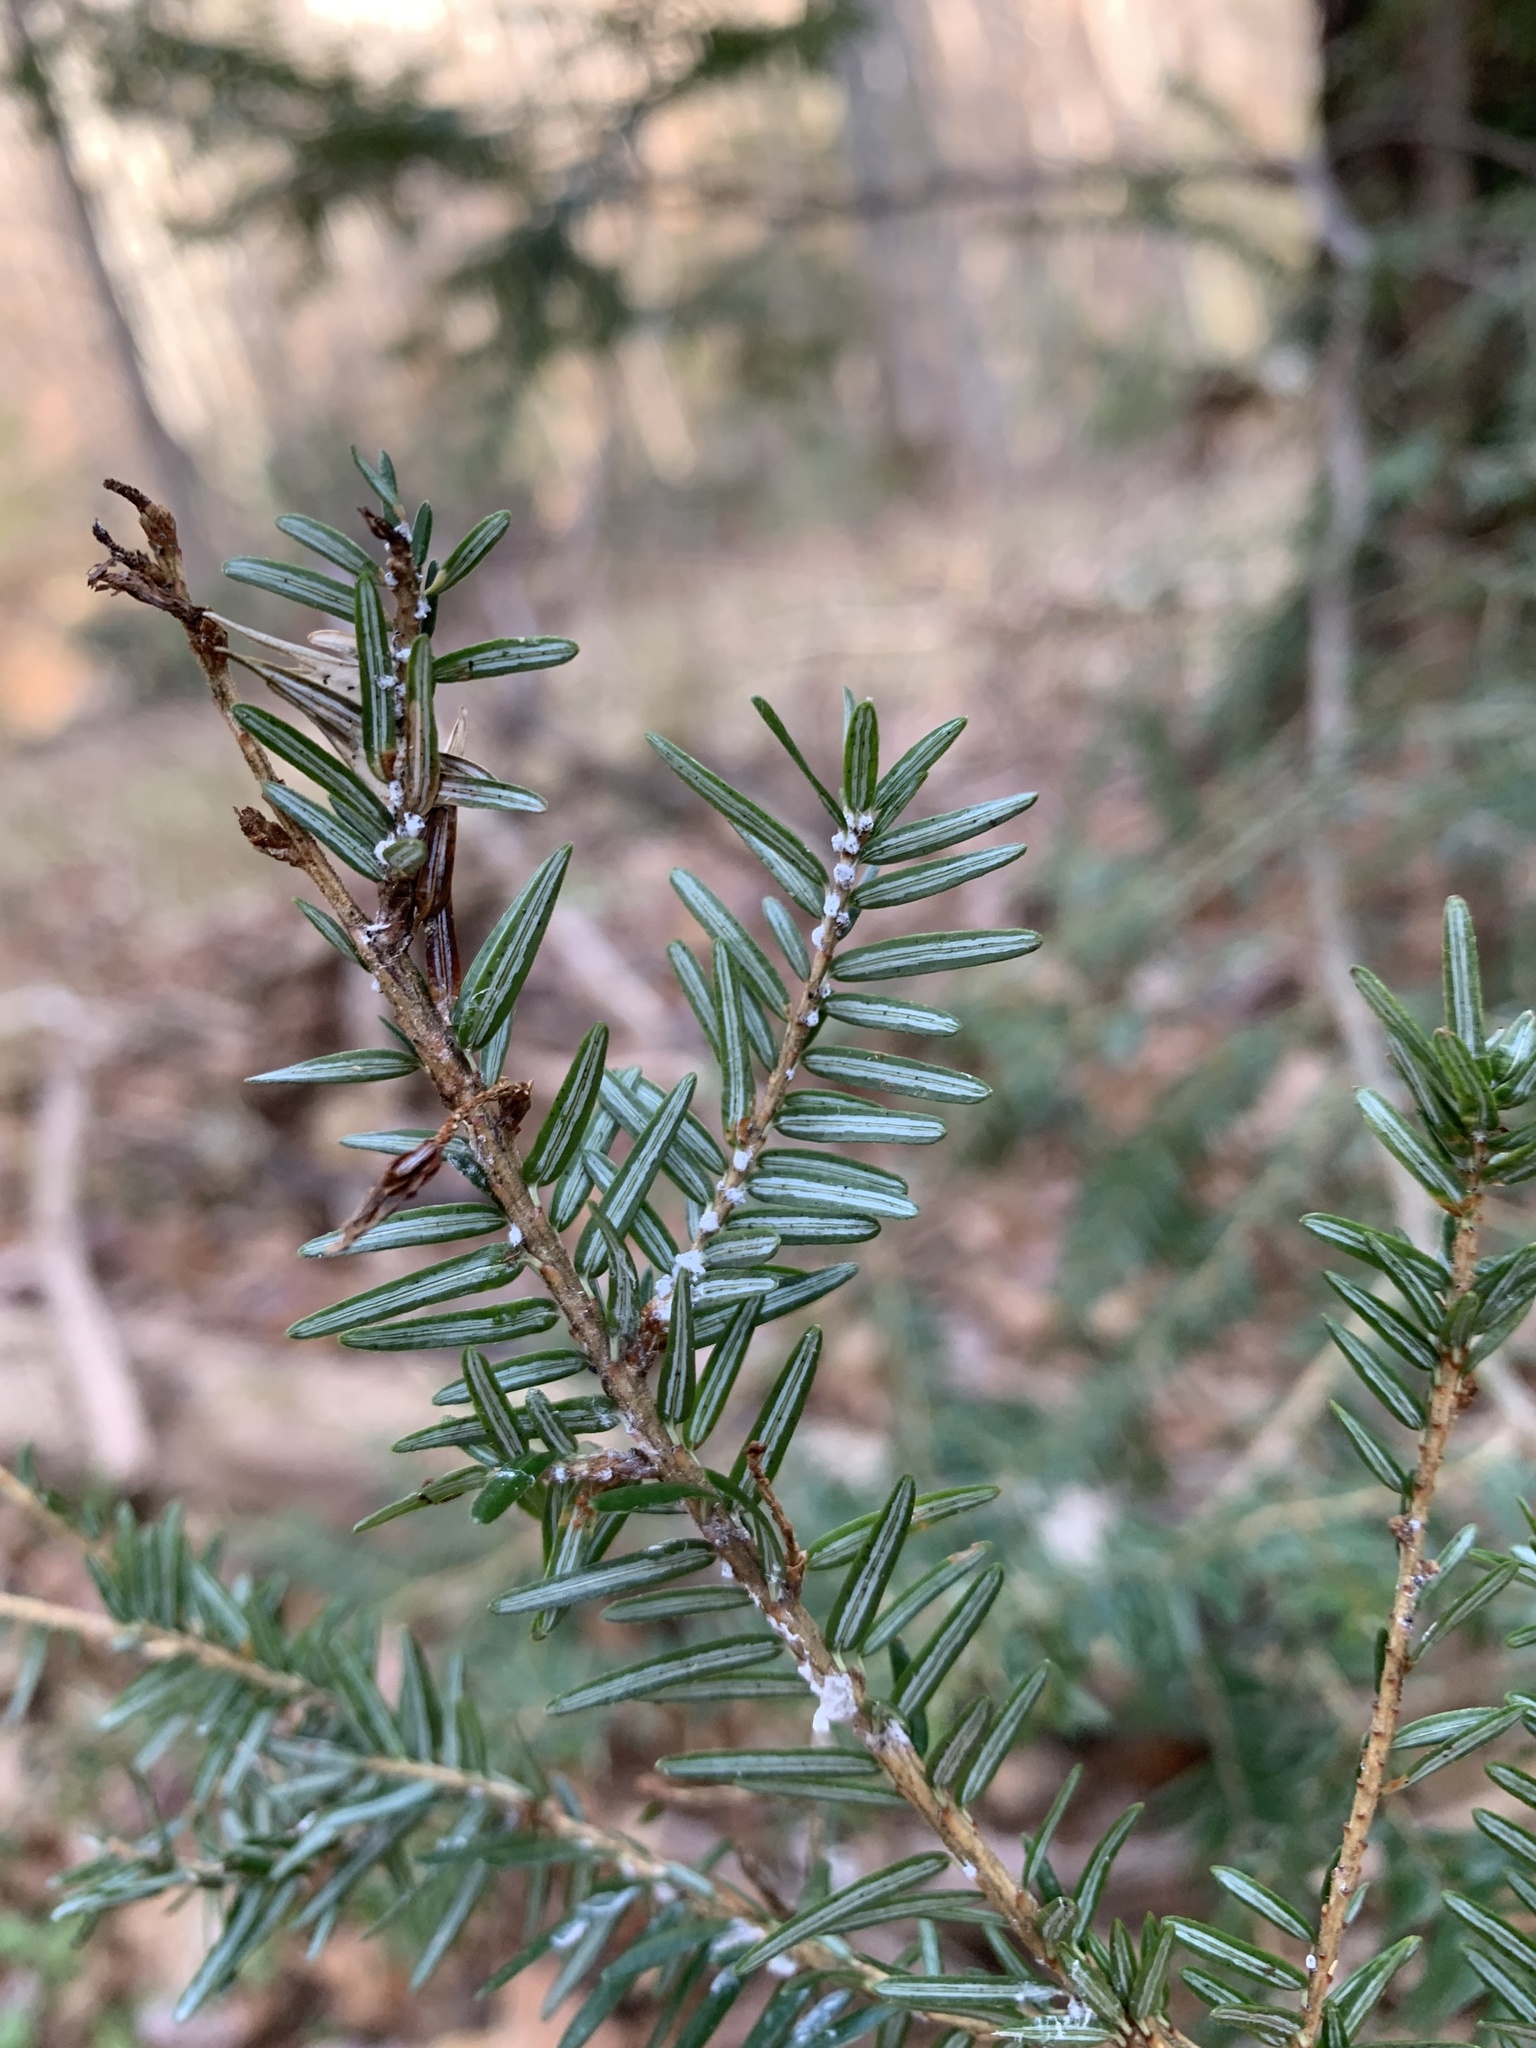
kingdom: Animalia
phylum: Arthropoda
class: Insecta
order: Hemiptera
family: Adelgidae
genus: Adelges
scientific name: Adelges tsugae
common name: Hemlock woolly adelgid
